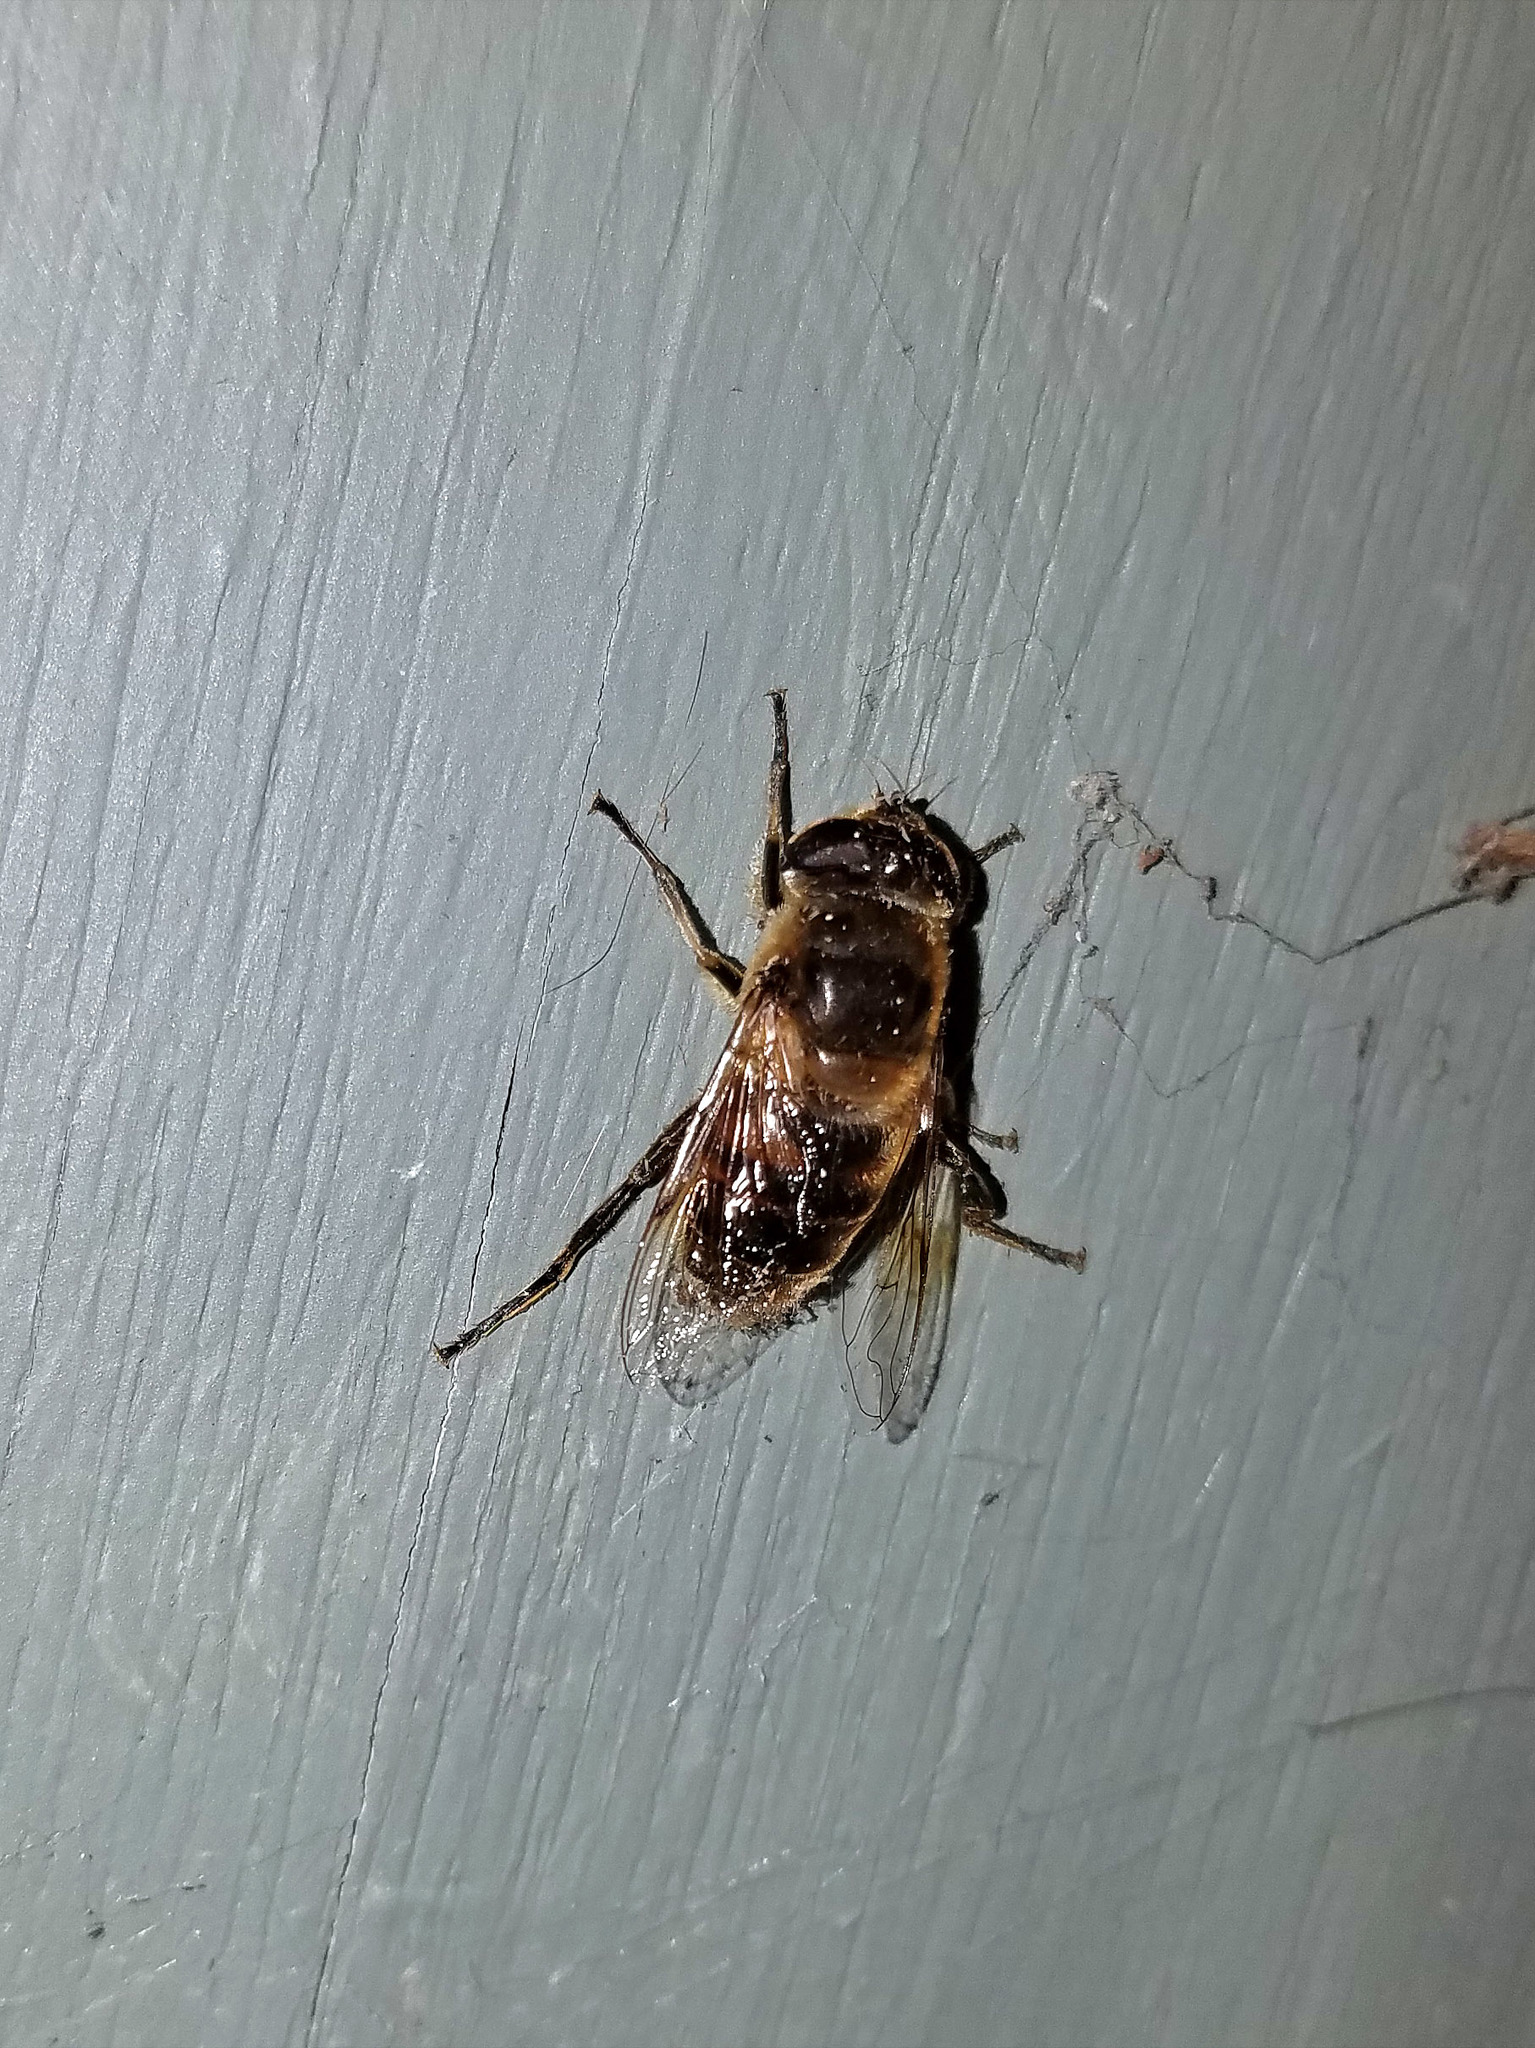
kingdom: Animalia
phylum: Arthropoda
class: Insecta
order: Diptera
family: Syrphidae
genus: Eristalis
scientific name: Eristalis tenax
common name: Drone fly
